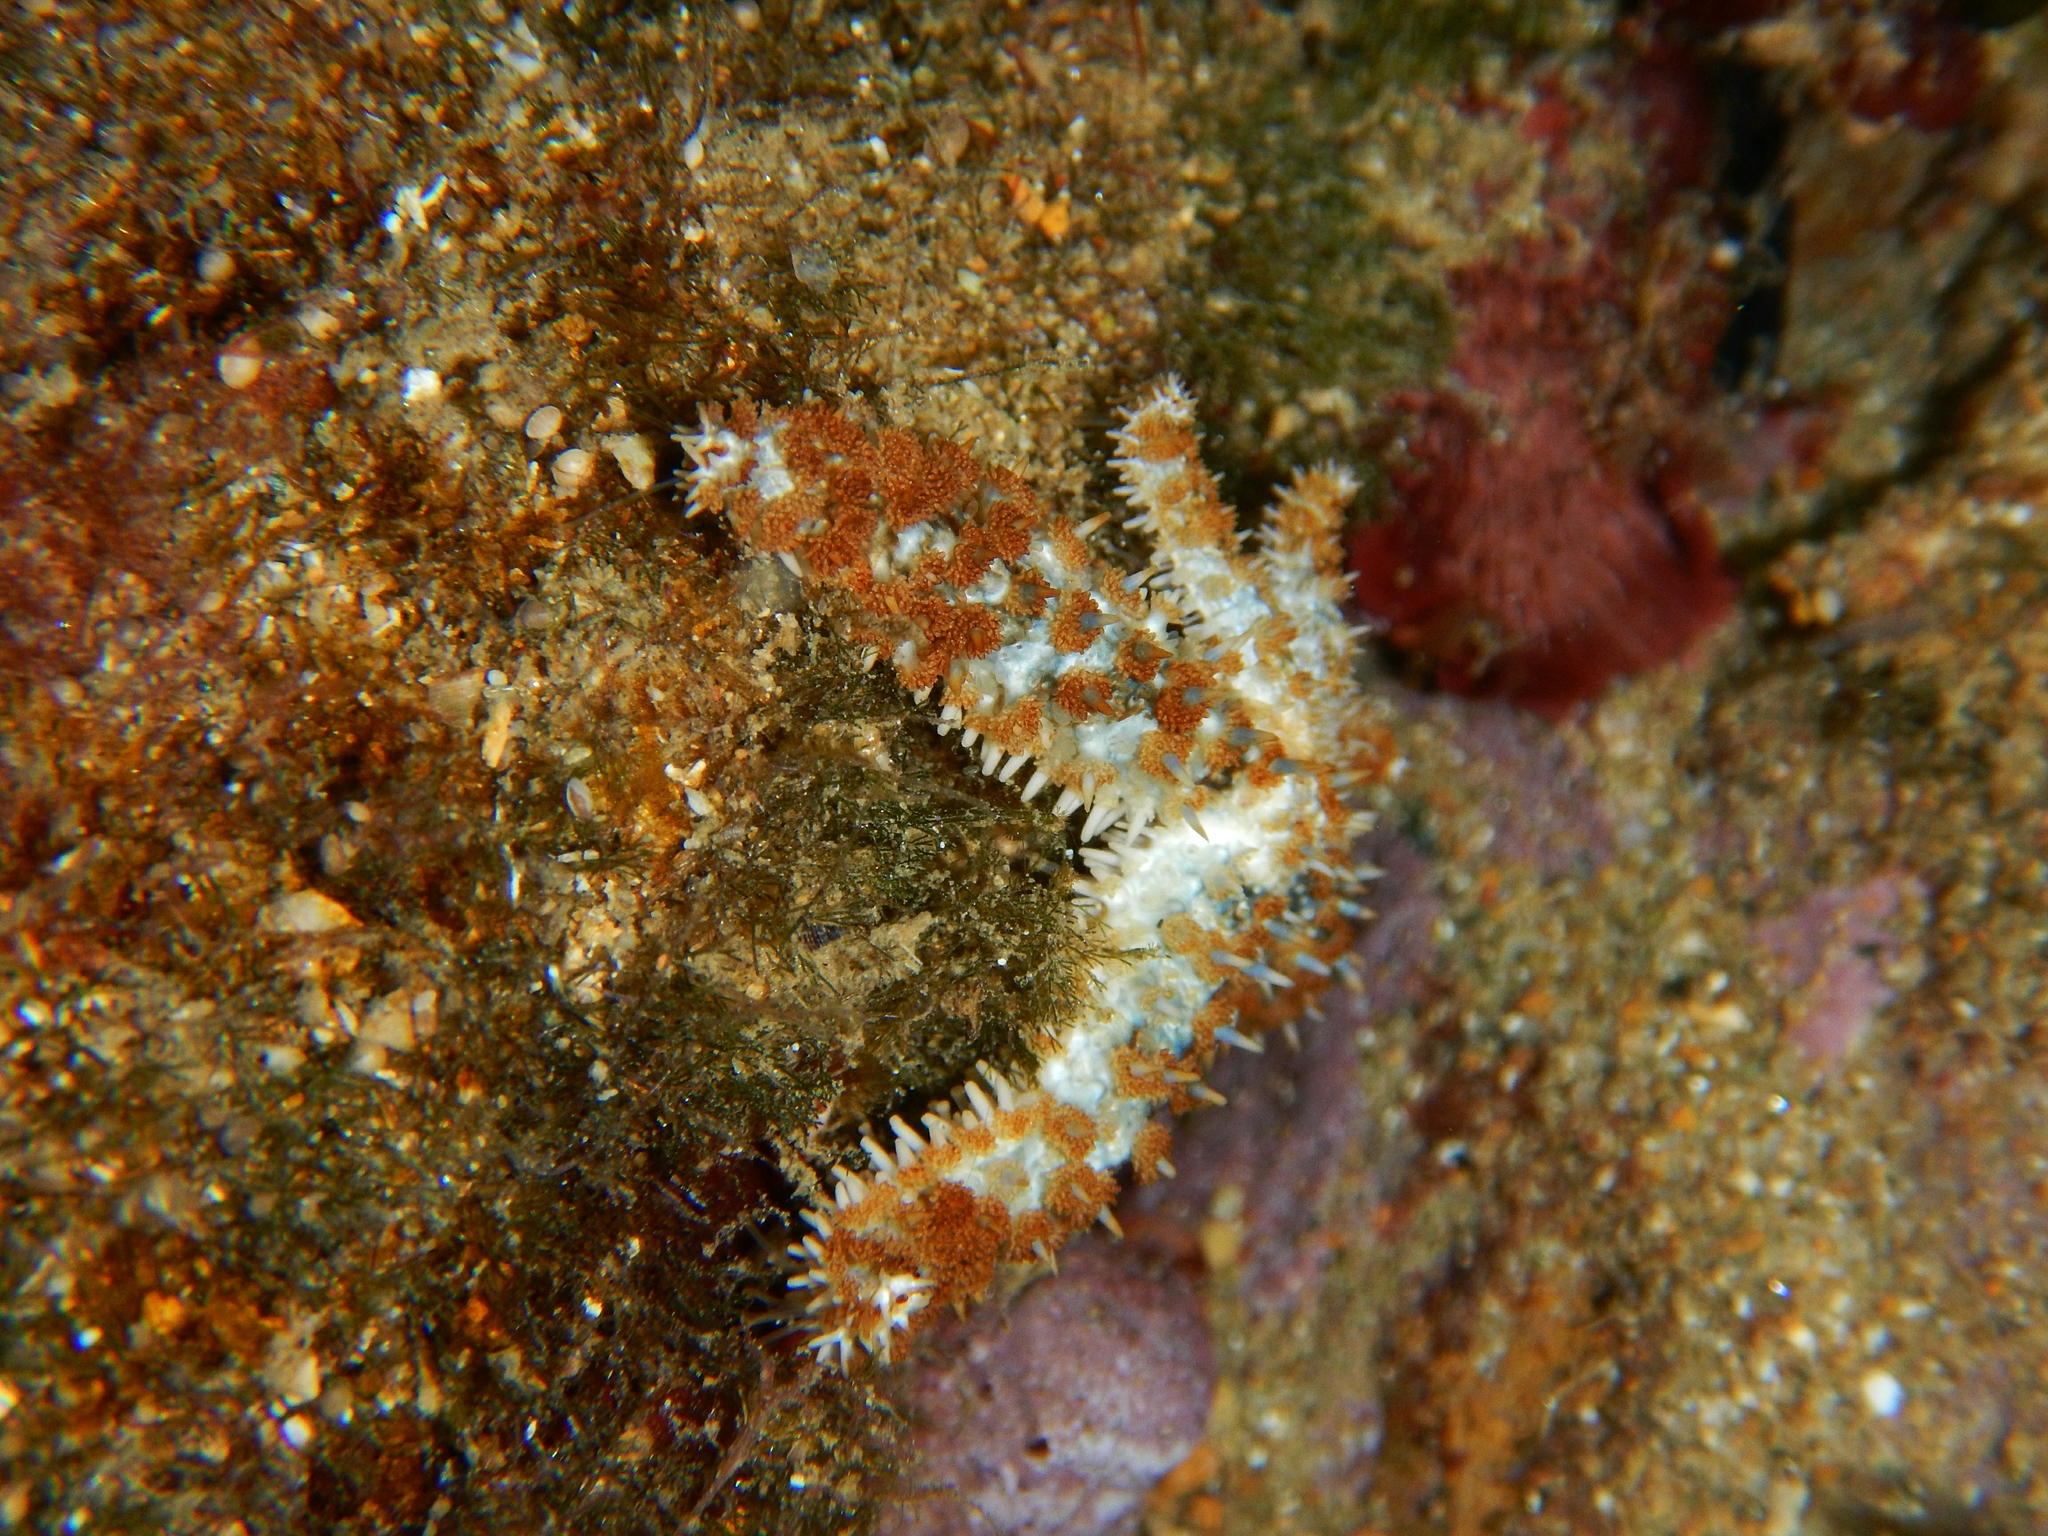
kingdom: Animalia
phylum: Echinodermata
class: Asteroidea
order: Forcipulatida
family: Asteriidae
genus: Coscinasterias
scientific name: Coscinasterias tenuispina
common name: Blue spiny starfish
